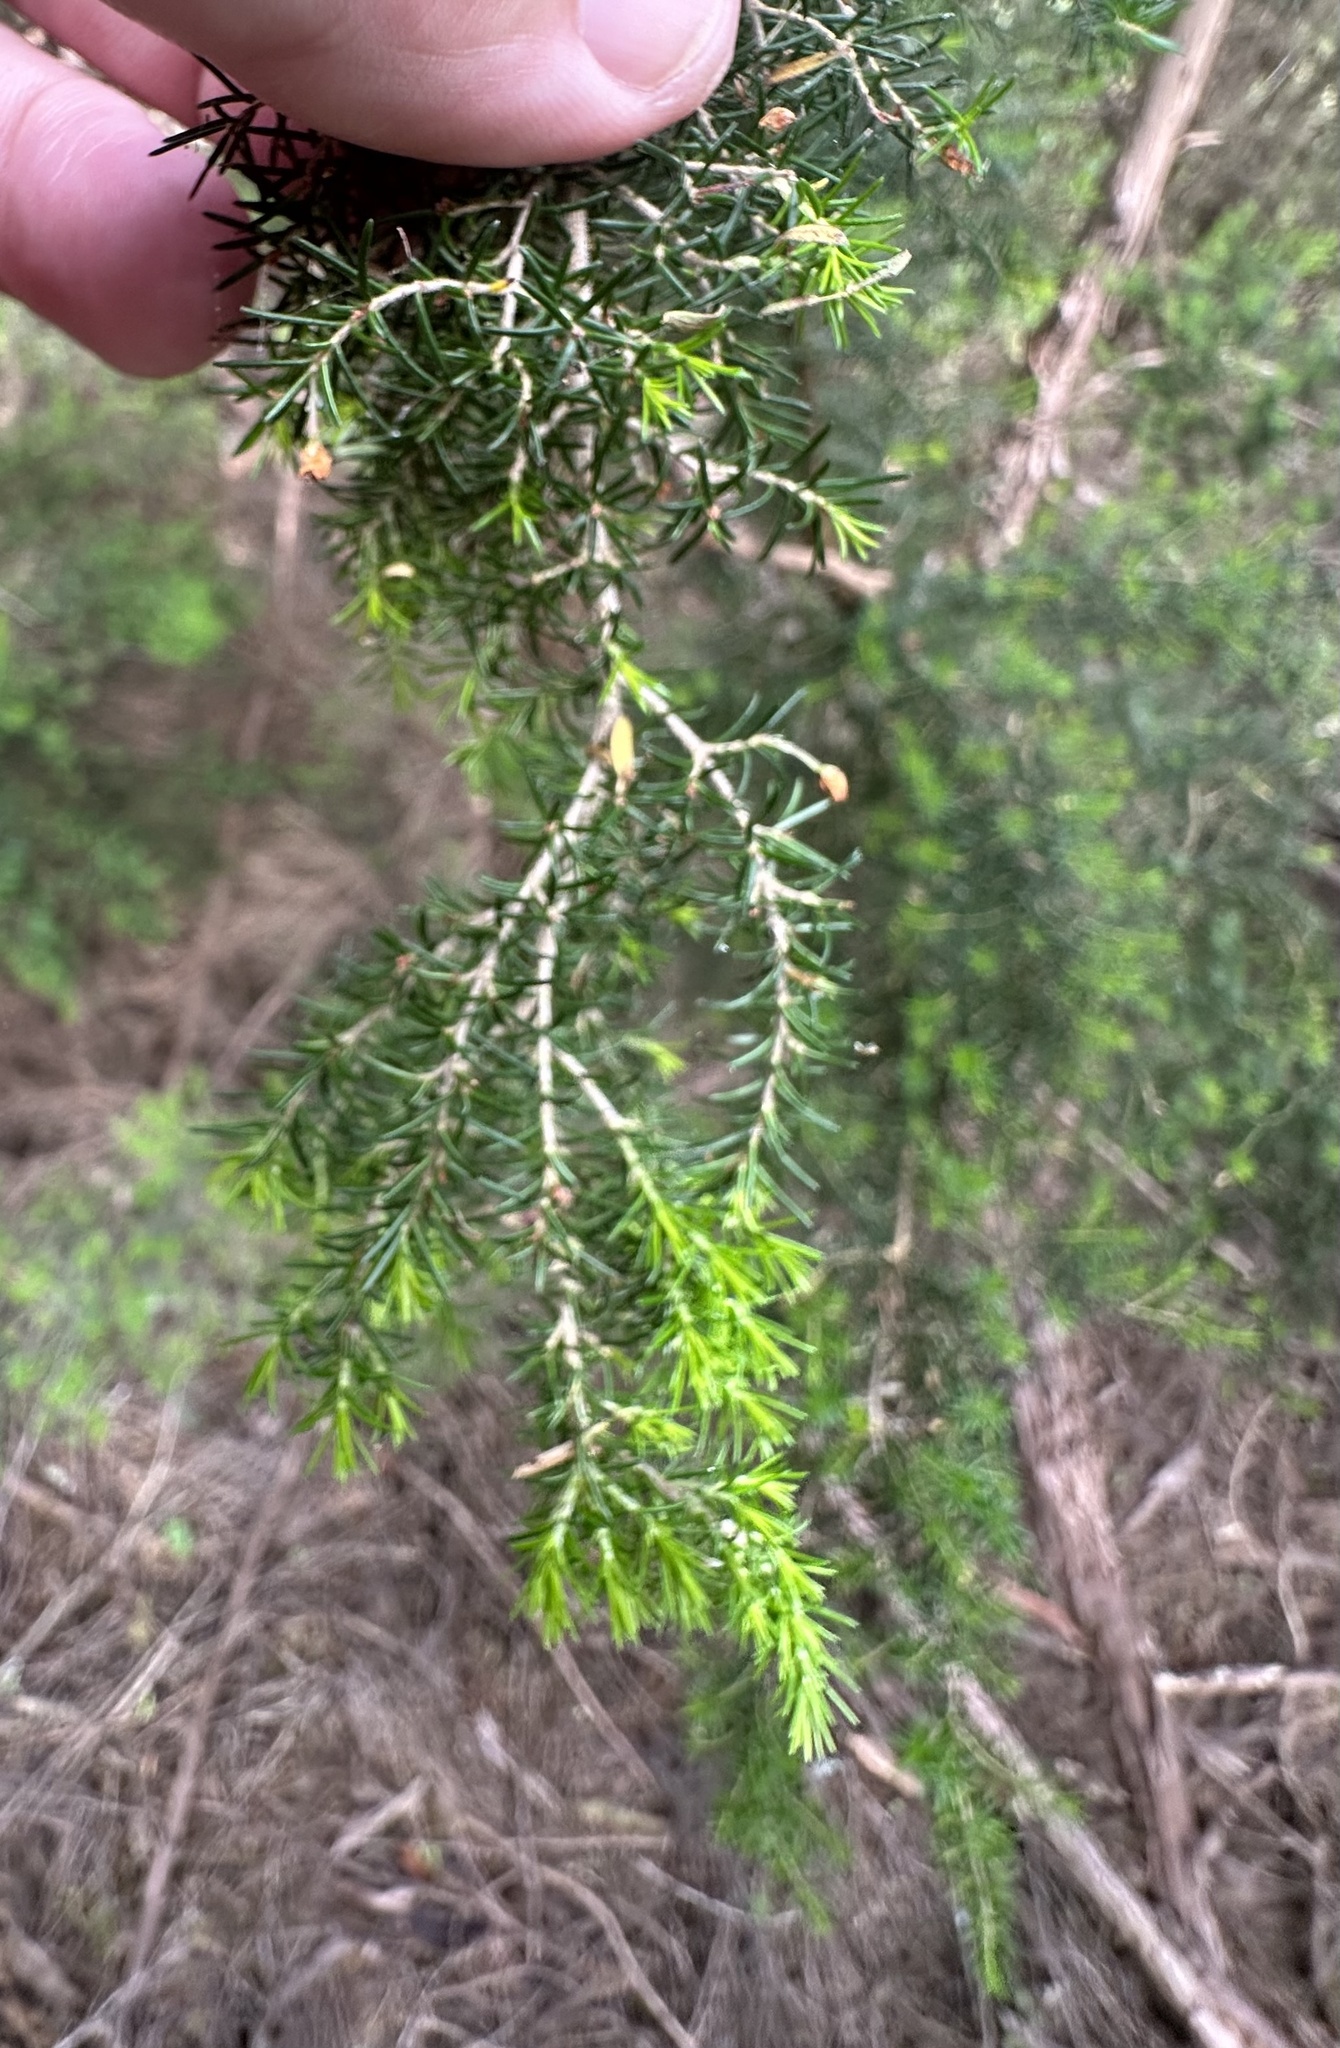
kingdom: Plantae
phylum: Tracheophyta
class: Magnoliopsida
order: Ericales
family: Ericaceae
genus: Erica
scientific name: Erica arborea
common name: Tree heath
